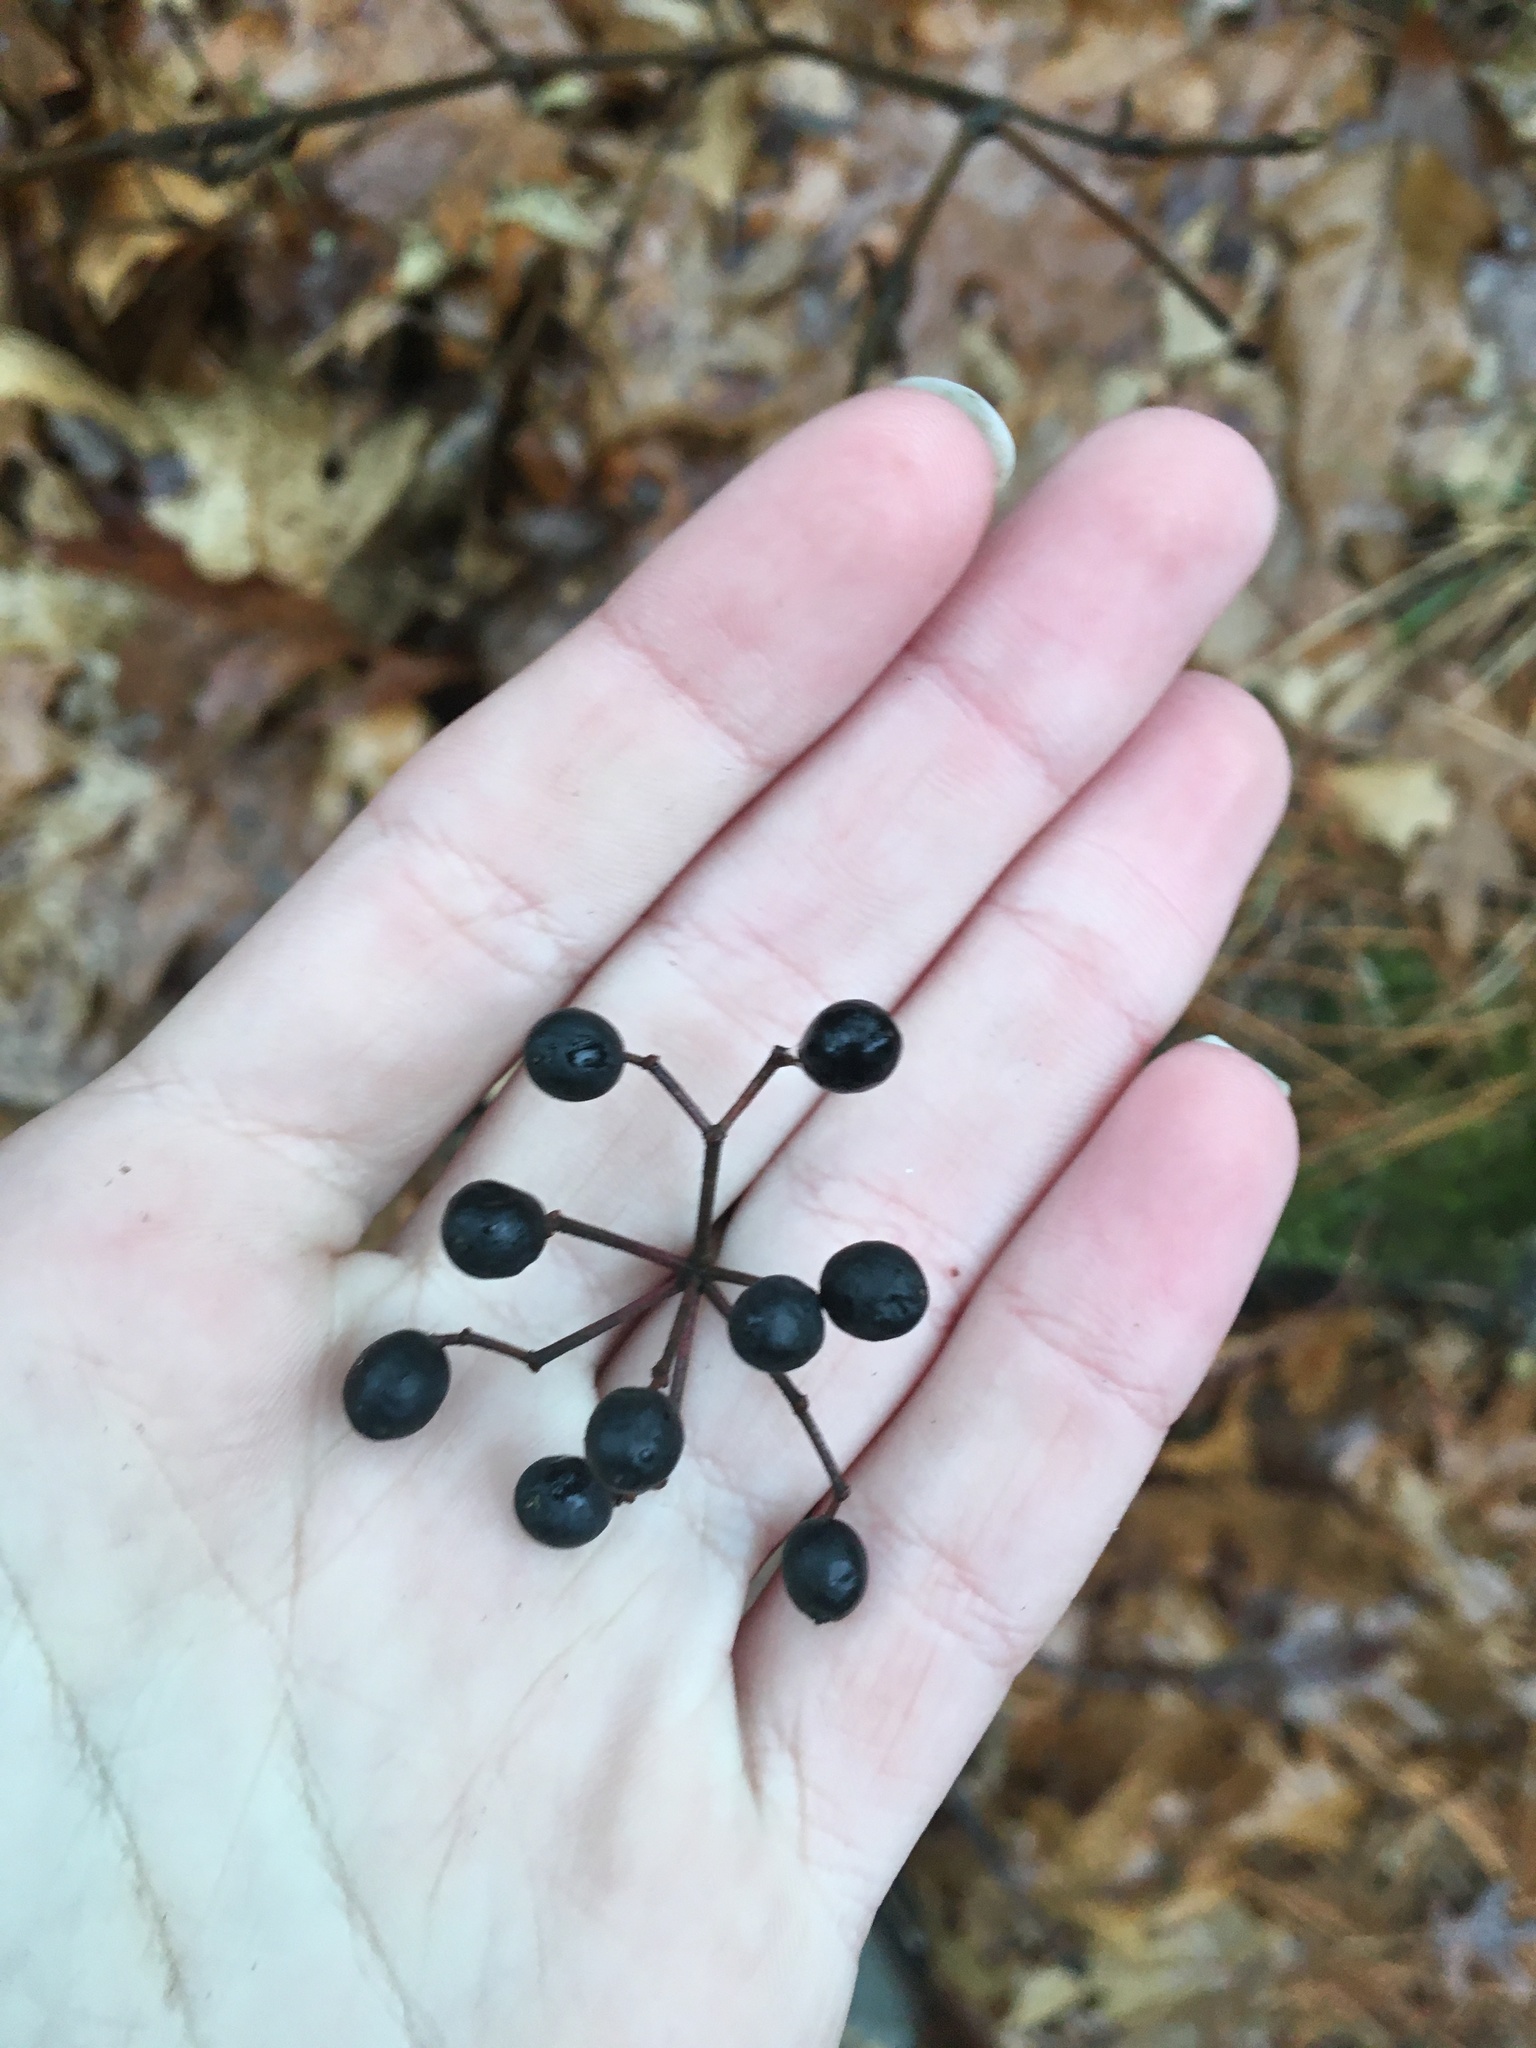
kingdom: Plantae
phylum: Tracheophyta
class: Magnoliopsida
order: Dipsacales
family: Viburnaceae
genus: Viburnum
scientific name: Viburnum acerifolium
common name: Dockmackie
